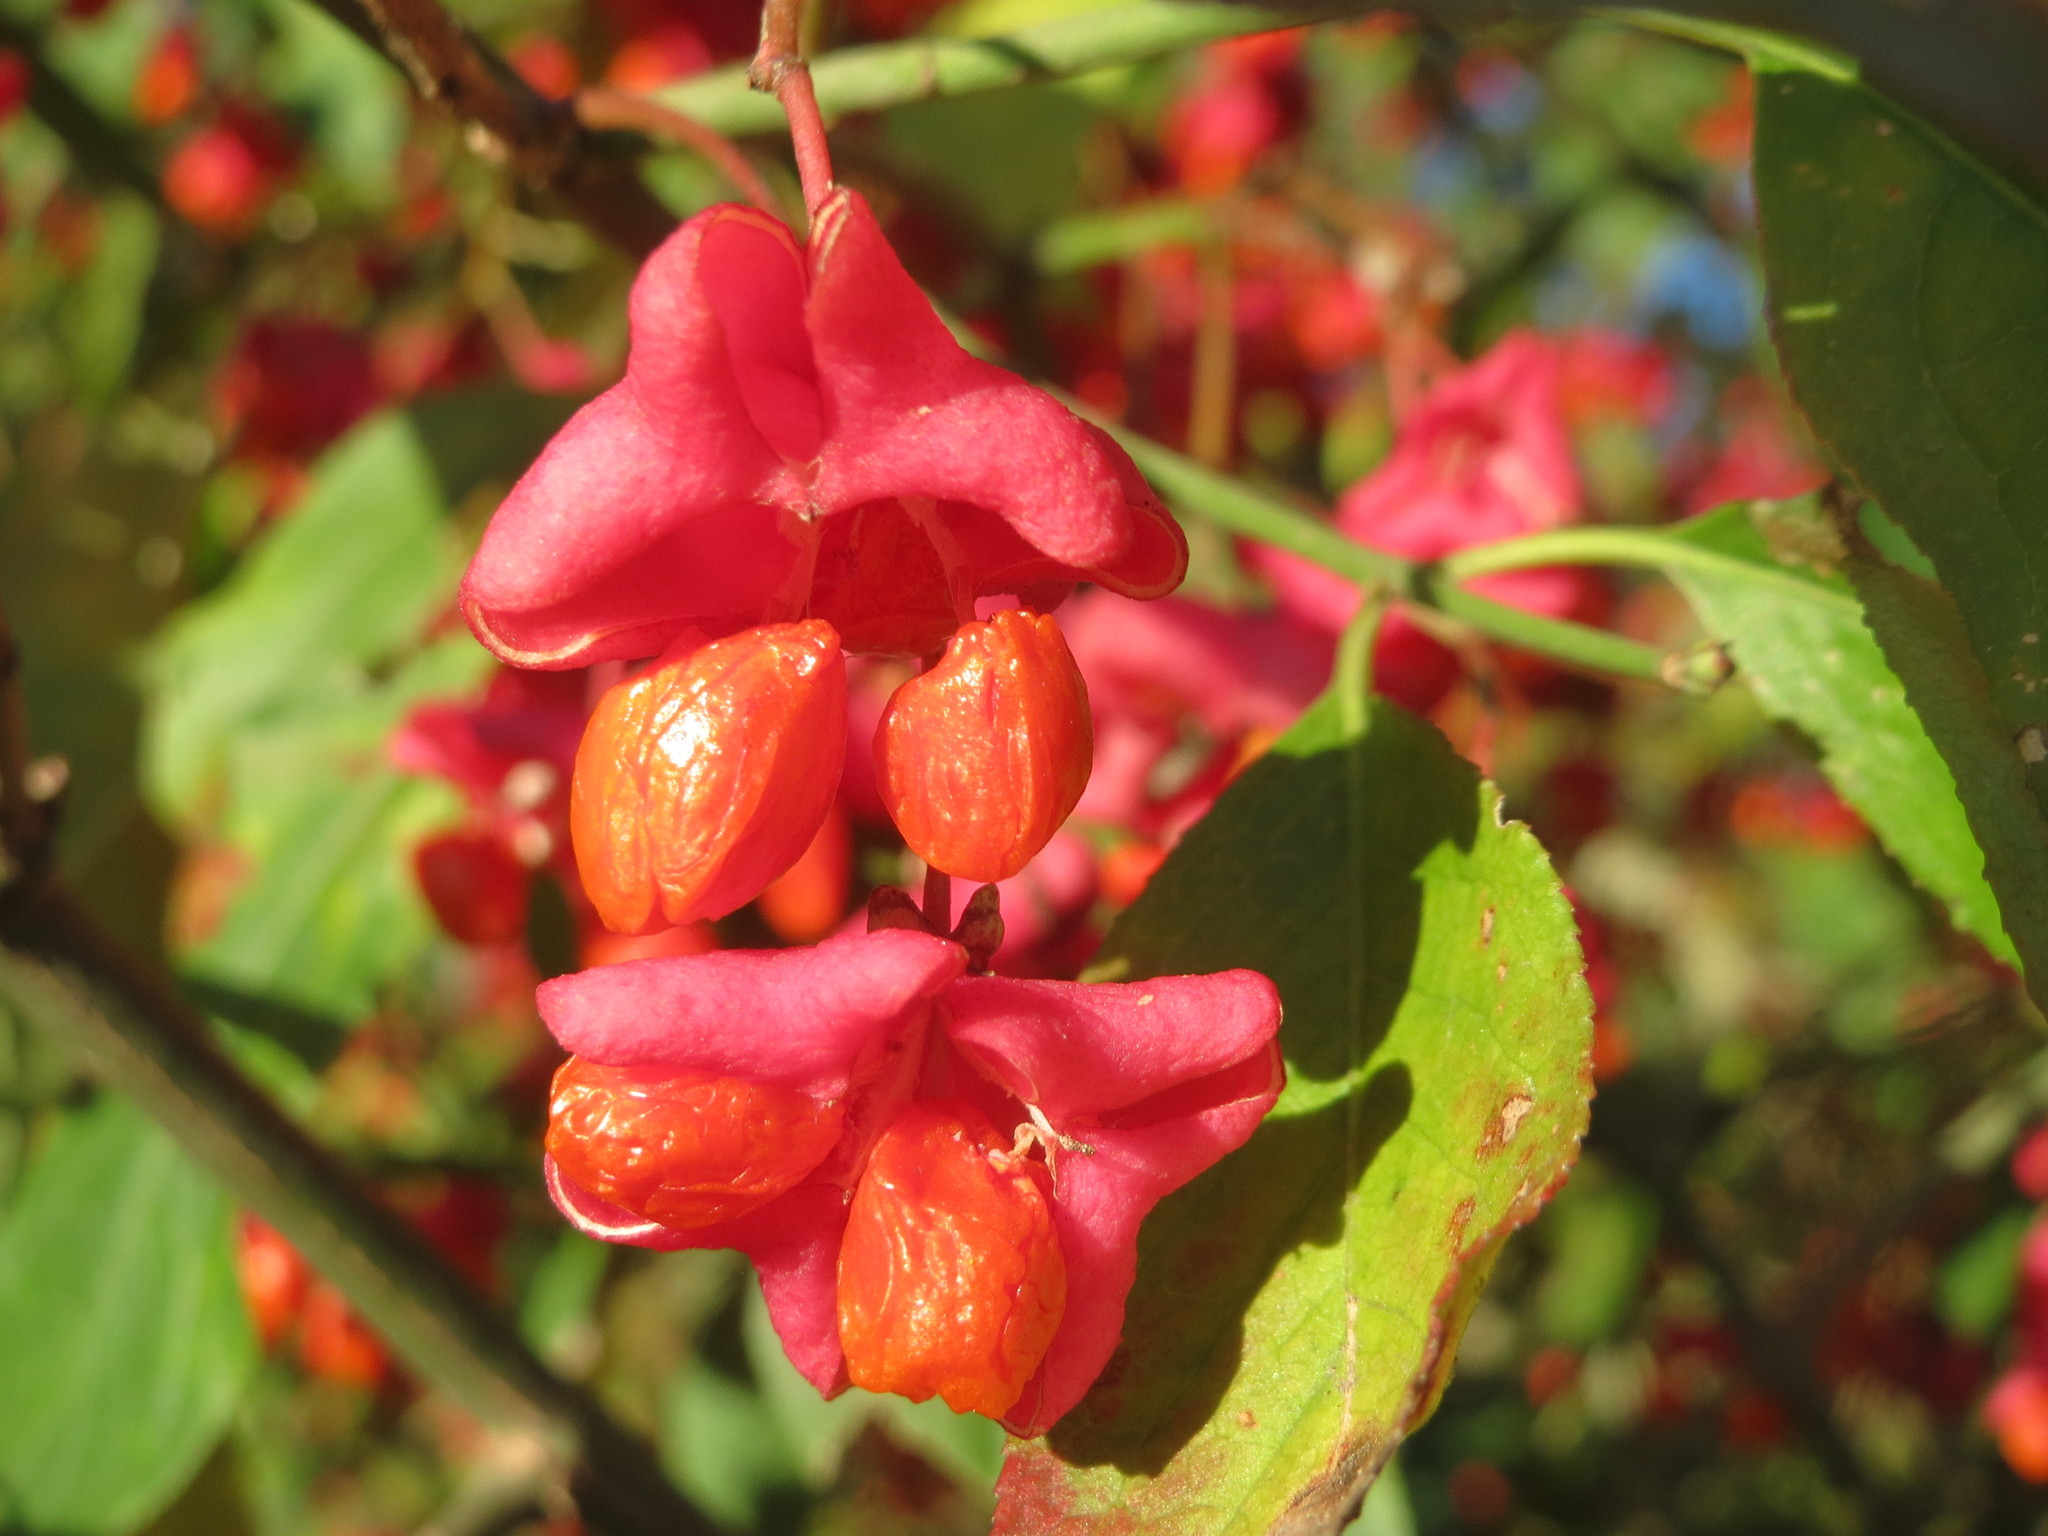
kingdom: Plantae
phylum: Tracheophyta
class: Magnoliopsida
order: Celastrales
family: Celastraceae
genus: Euonymus
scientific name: Euonymus europaeus
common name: Spindle
